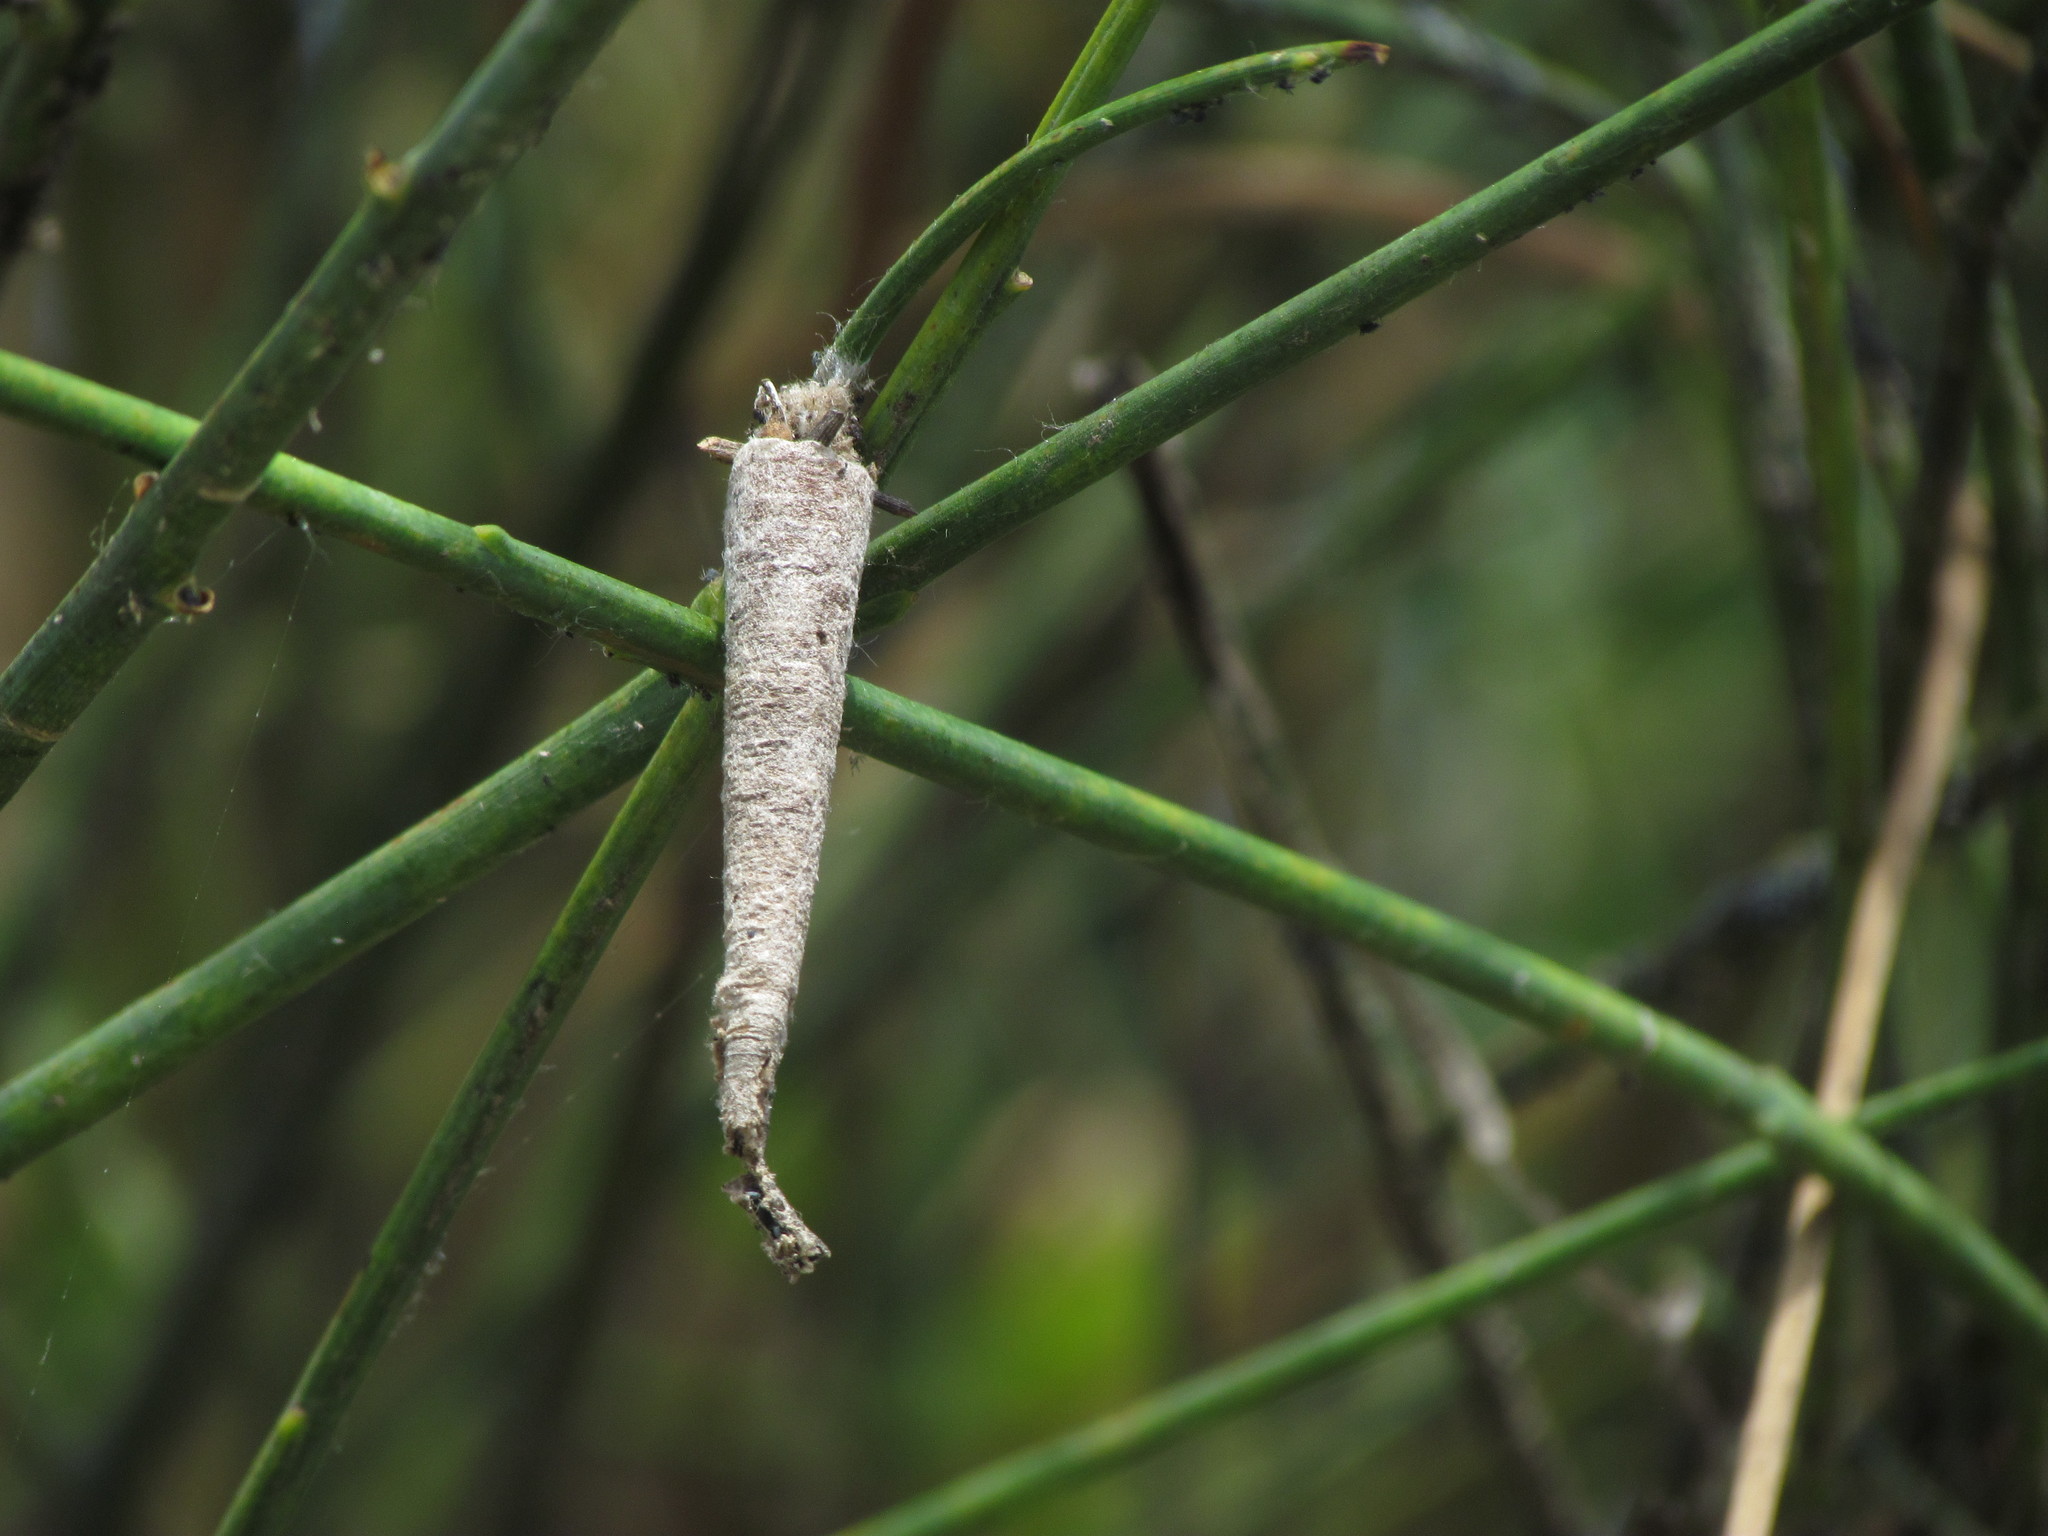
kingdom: Animalia
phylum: Arthropoda
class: Insecta
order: Lepidoptera
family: Psychidae
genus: Oiketicus
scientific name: Oiketicus geyeri
